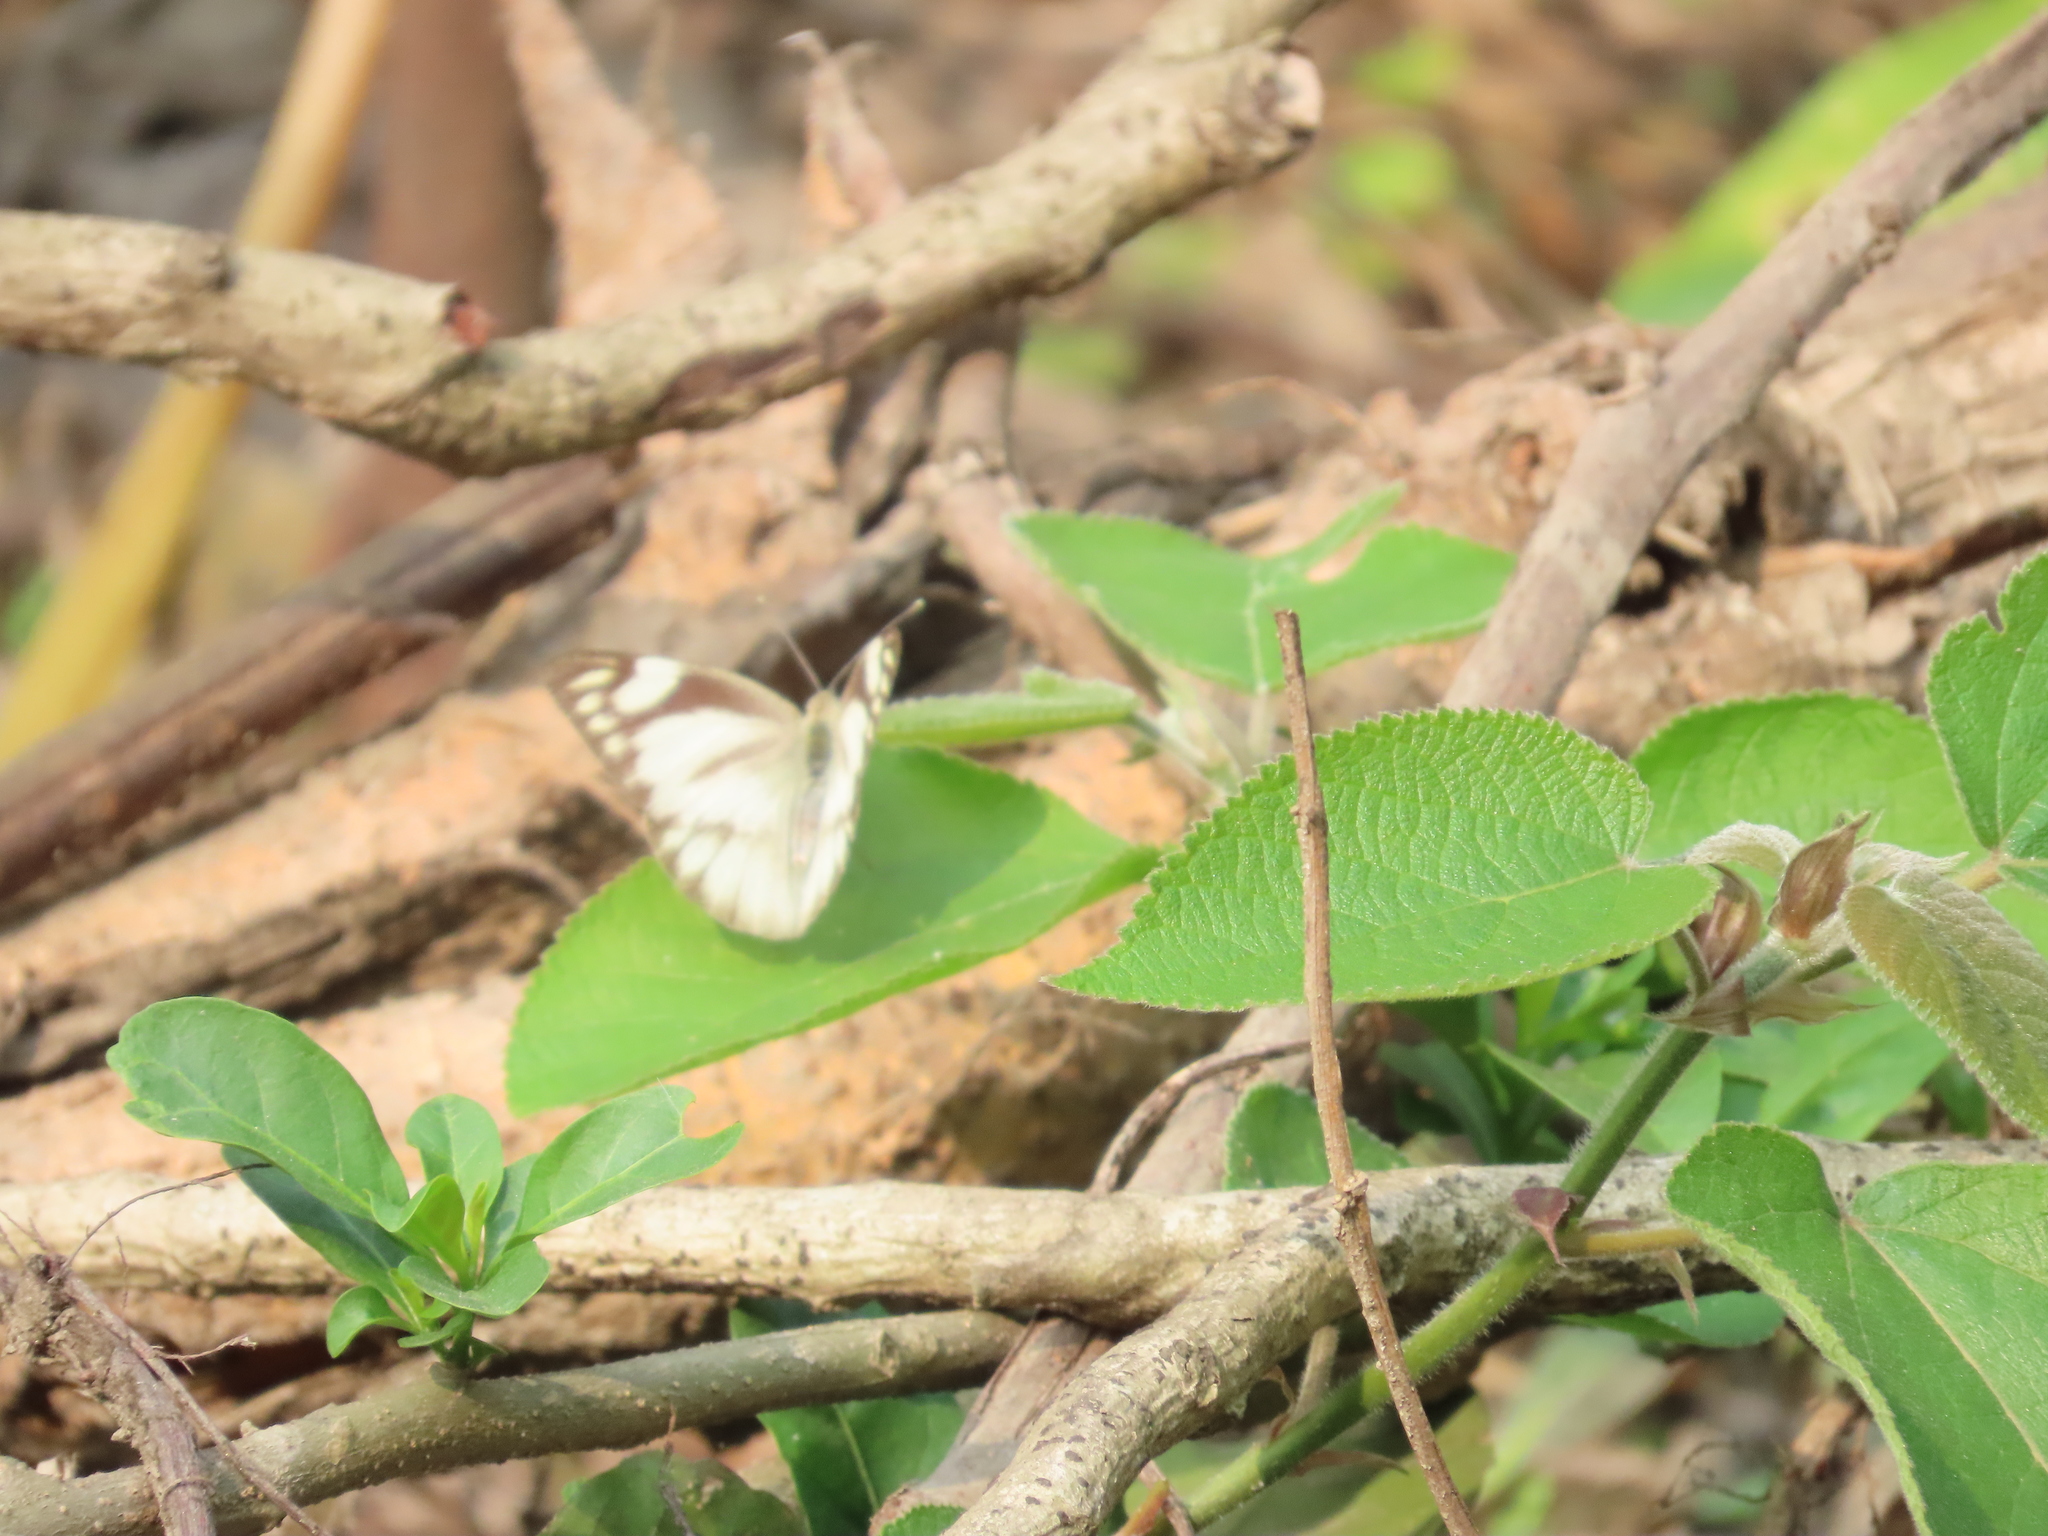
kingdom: Animalia
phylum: Arthropoda
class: Insecta
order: Lepidoptera
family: Pieridae
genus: Appias
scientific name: Appias libythea
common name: Striped albatross
